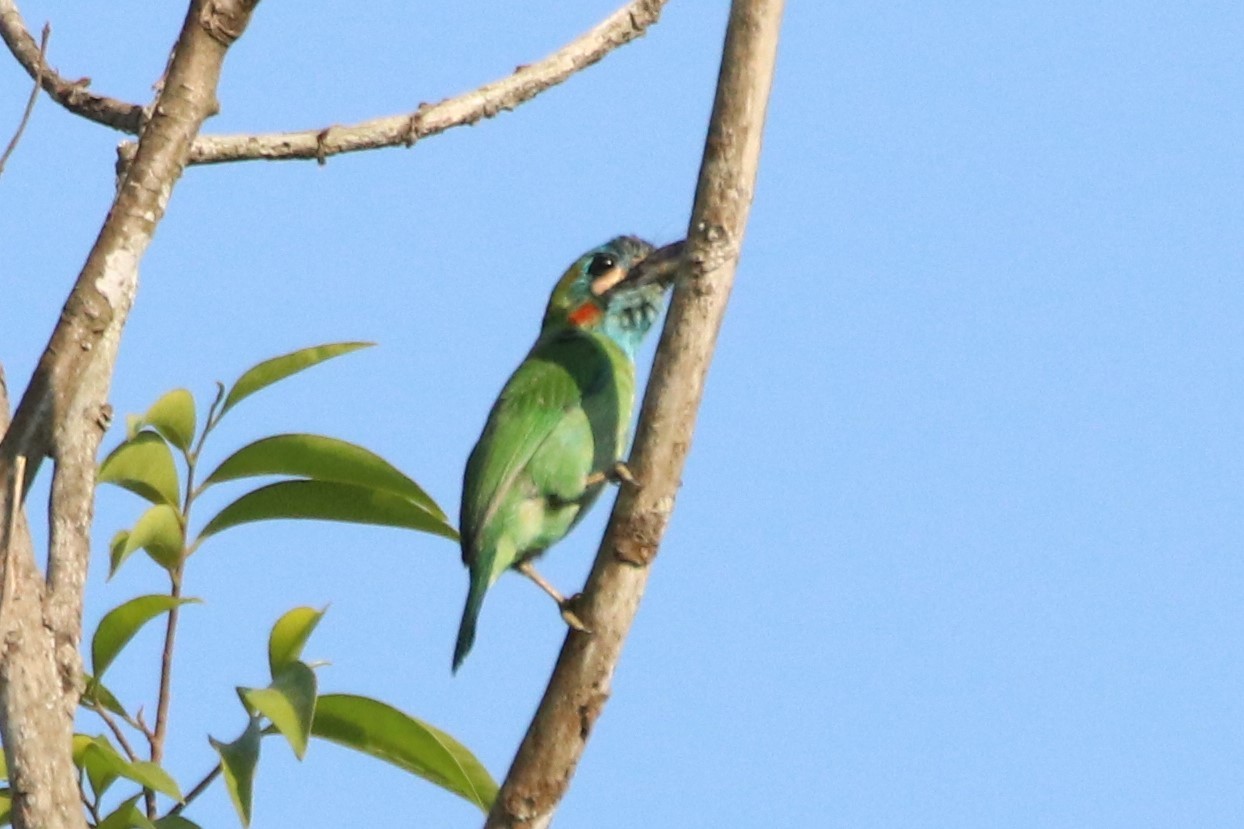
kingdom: Animalia
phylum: Chordata
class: Aves
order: Piciformes
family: Megalaimidae
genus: Psilopogon
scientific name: Psilopogon duvaucelii
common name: Blue-eared barbet
